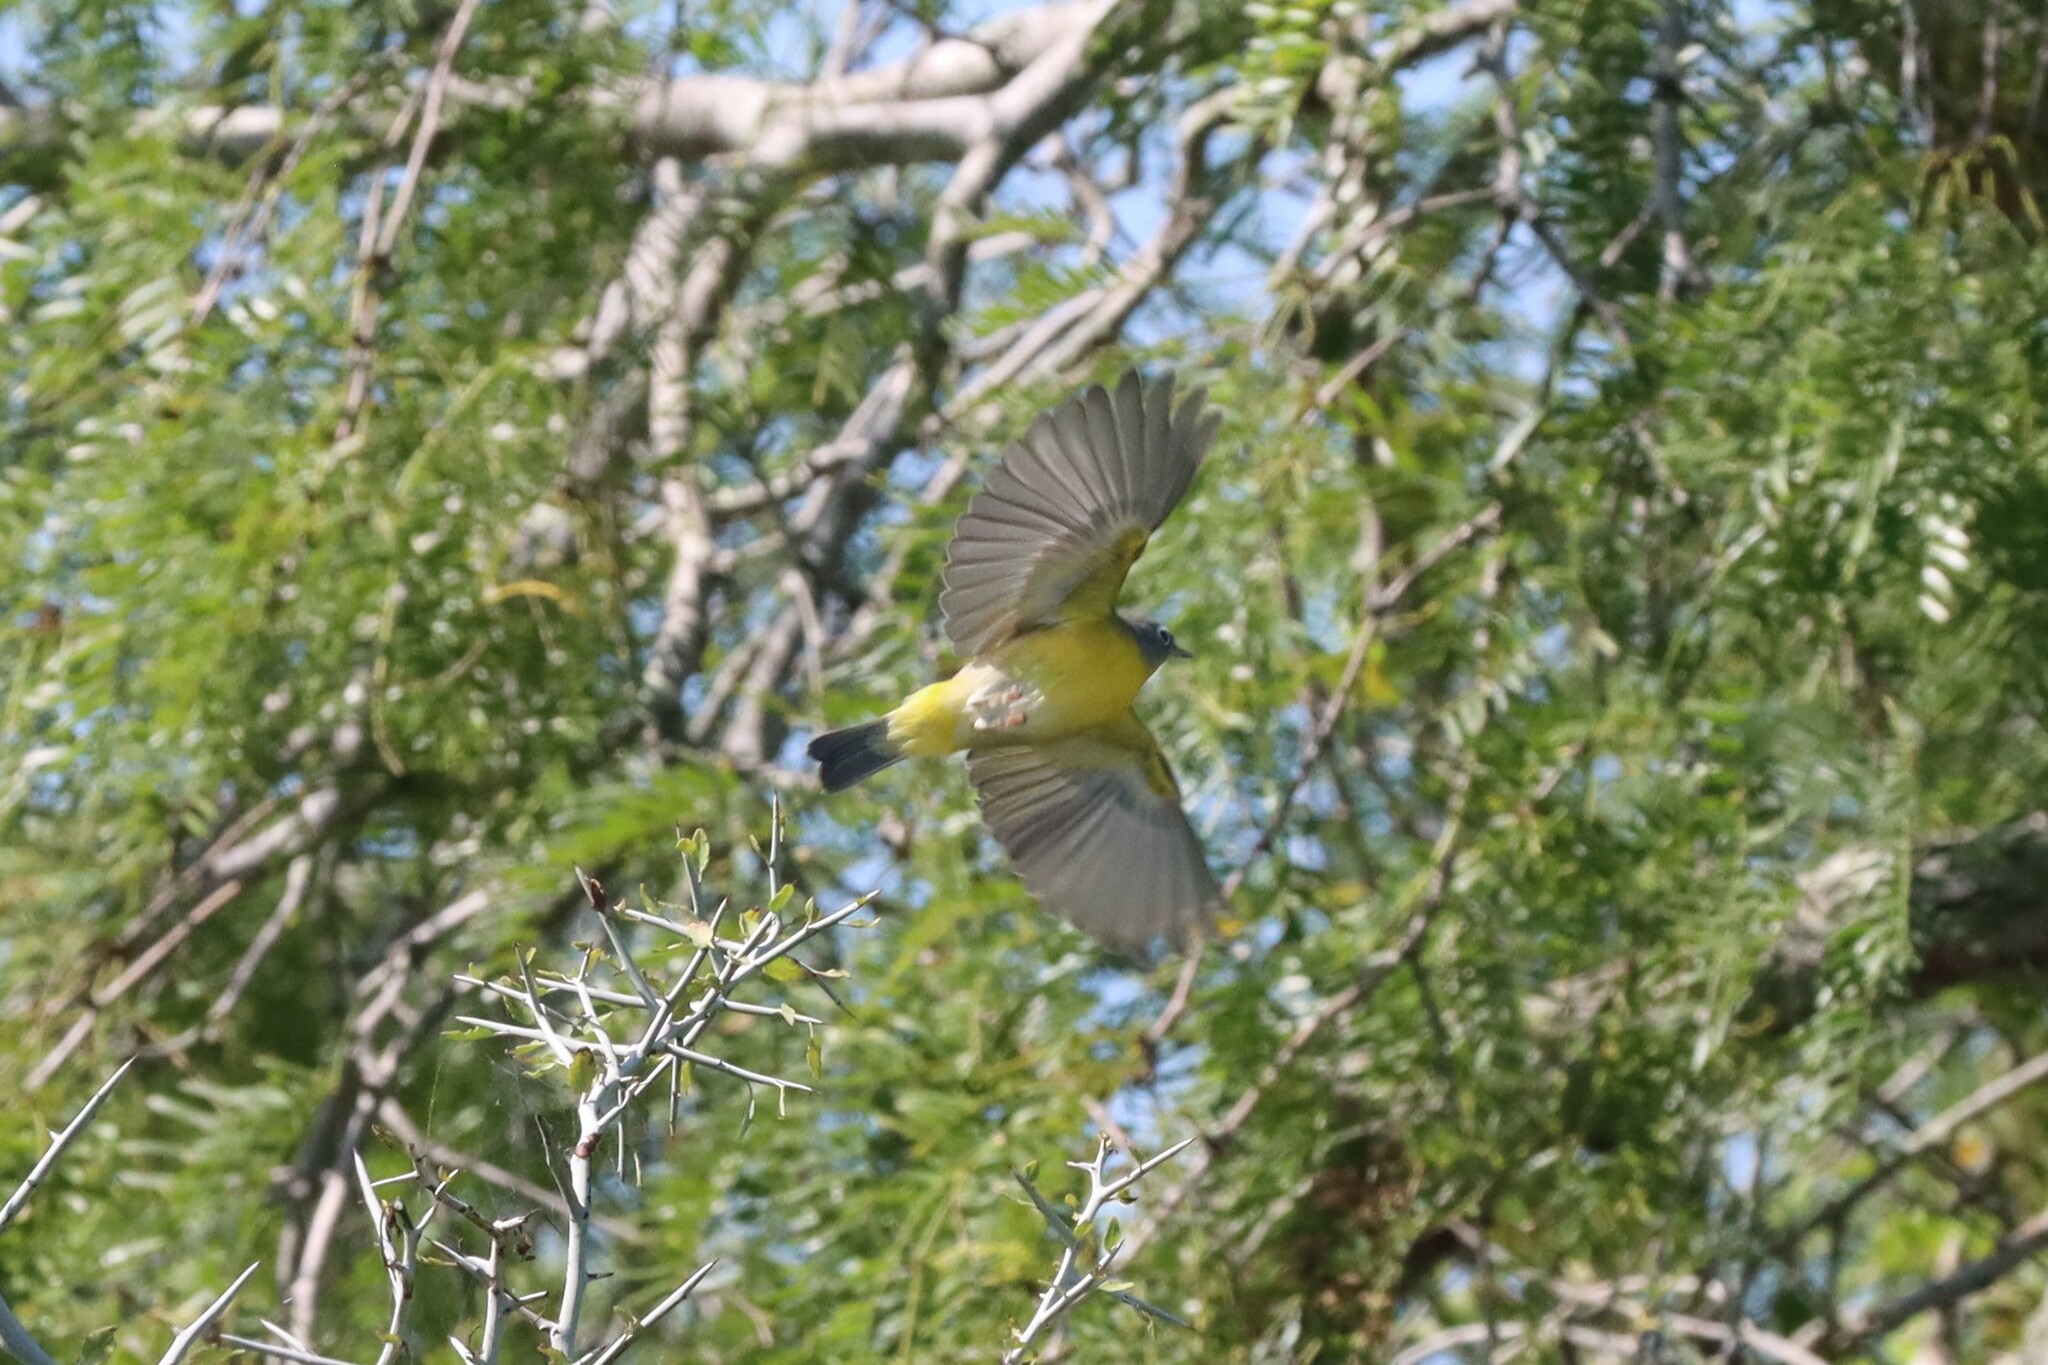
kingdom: Animalia
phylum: Chordata
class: Aves
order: Passeriformes
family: Parulidae
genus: Leiothlypis
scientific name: Leiothlypis ruficapilla
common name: Nashville warbler
